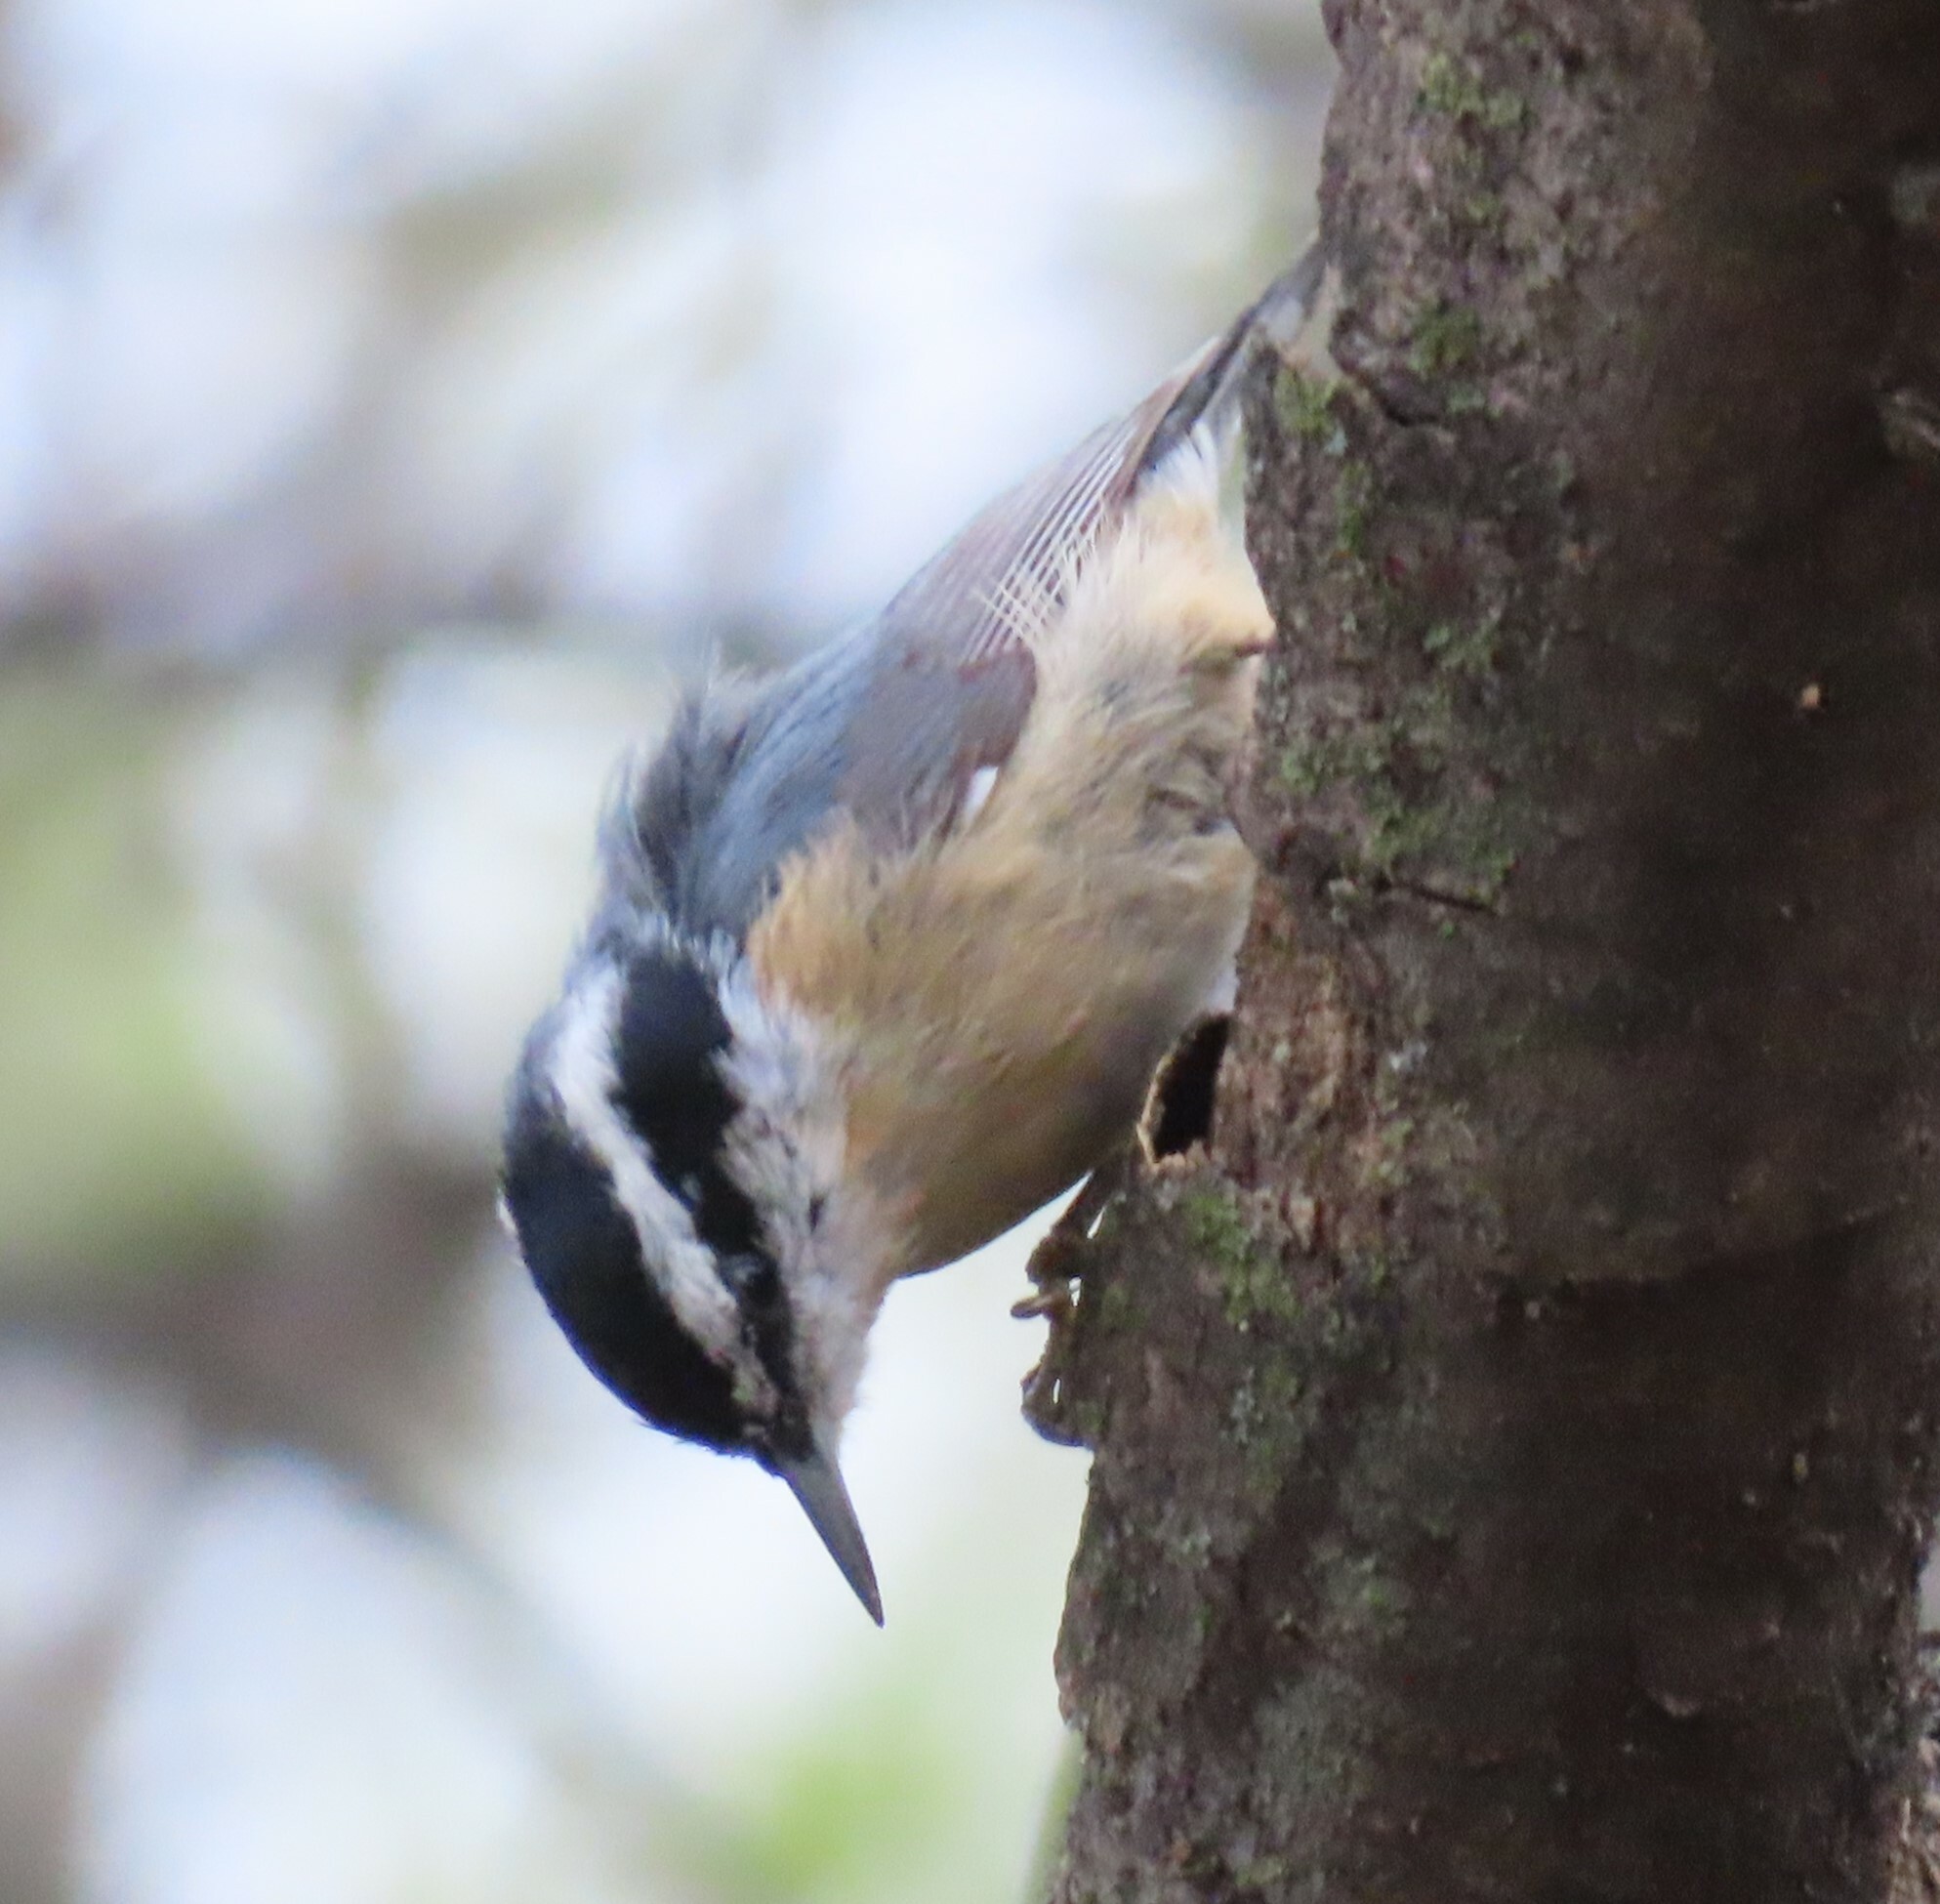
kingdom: Animalia
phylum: Chordata
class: Aves
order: Passeriformes
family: Sittidae
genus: Sitta
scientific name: Sitta canadensis
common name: Red-breasted nuthatch
